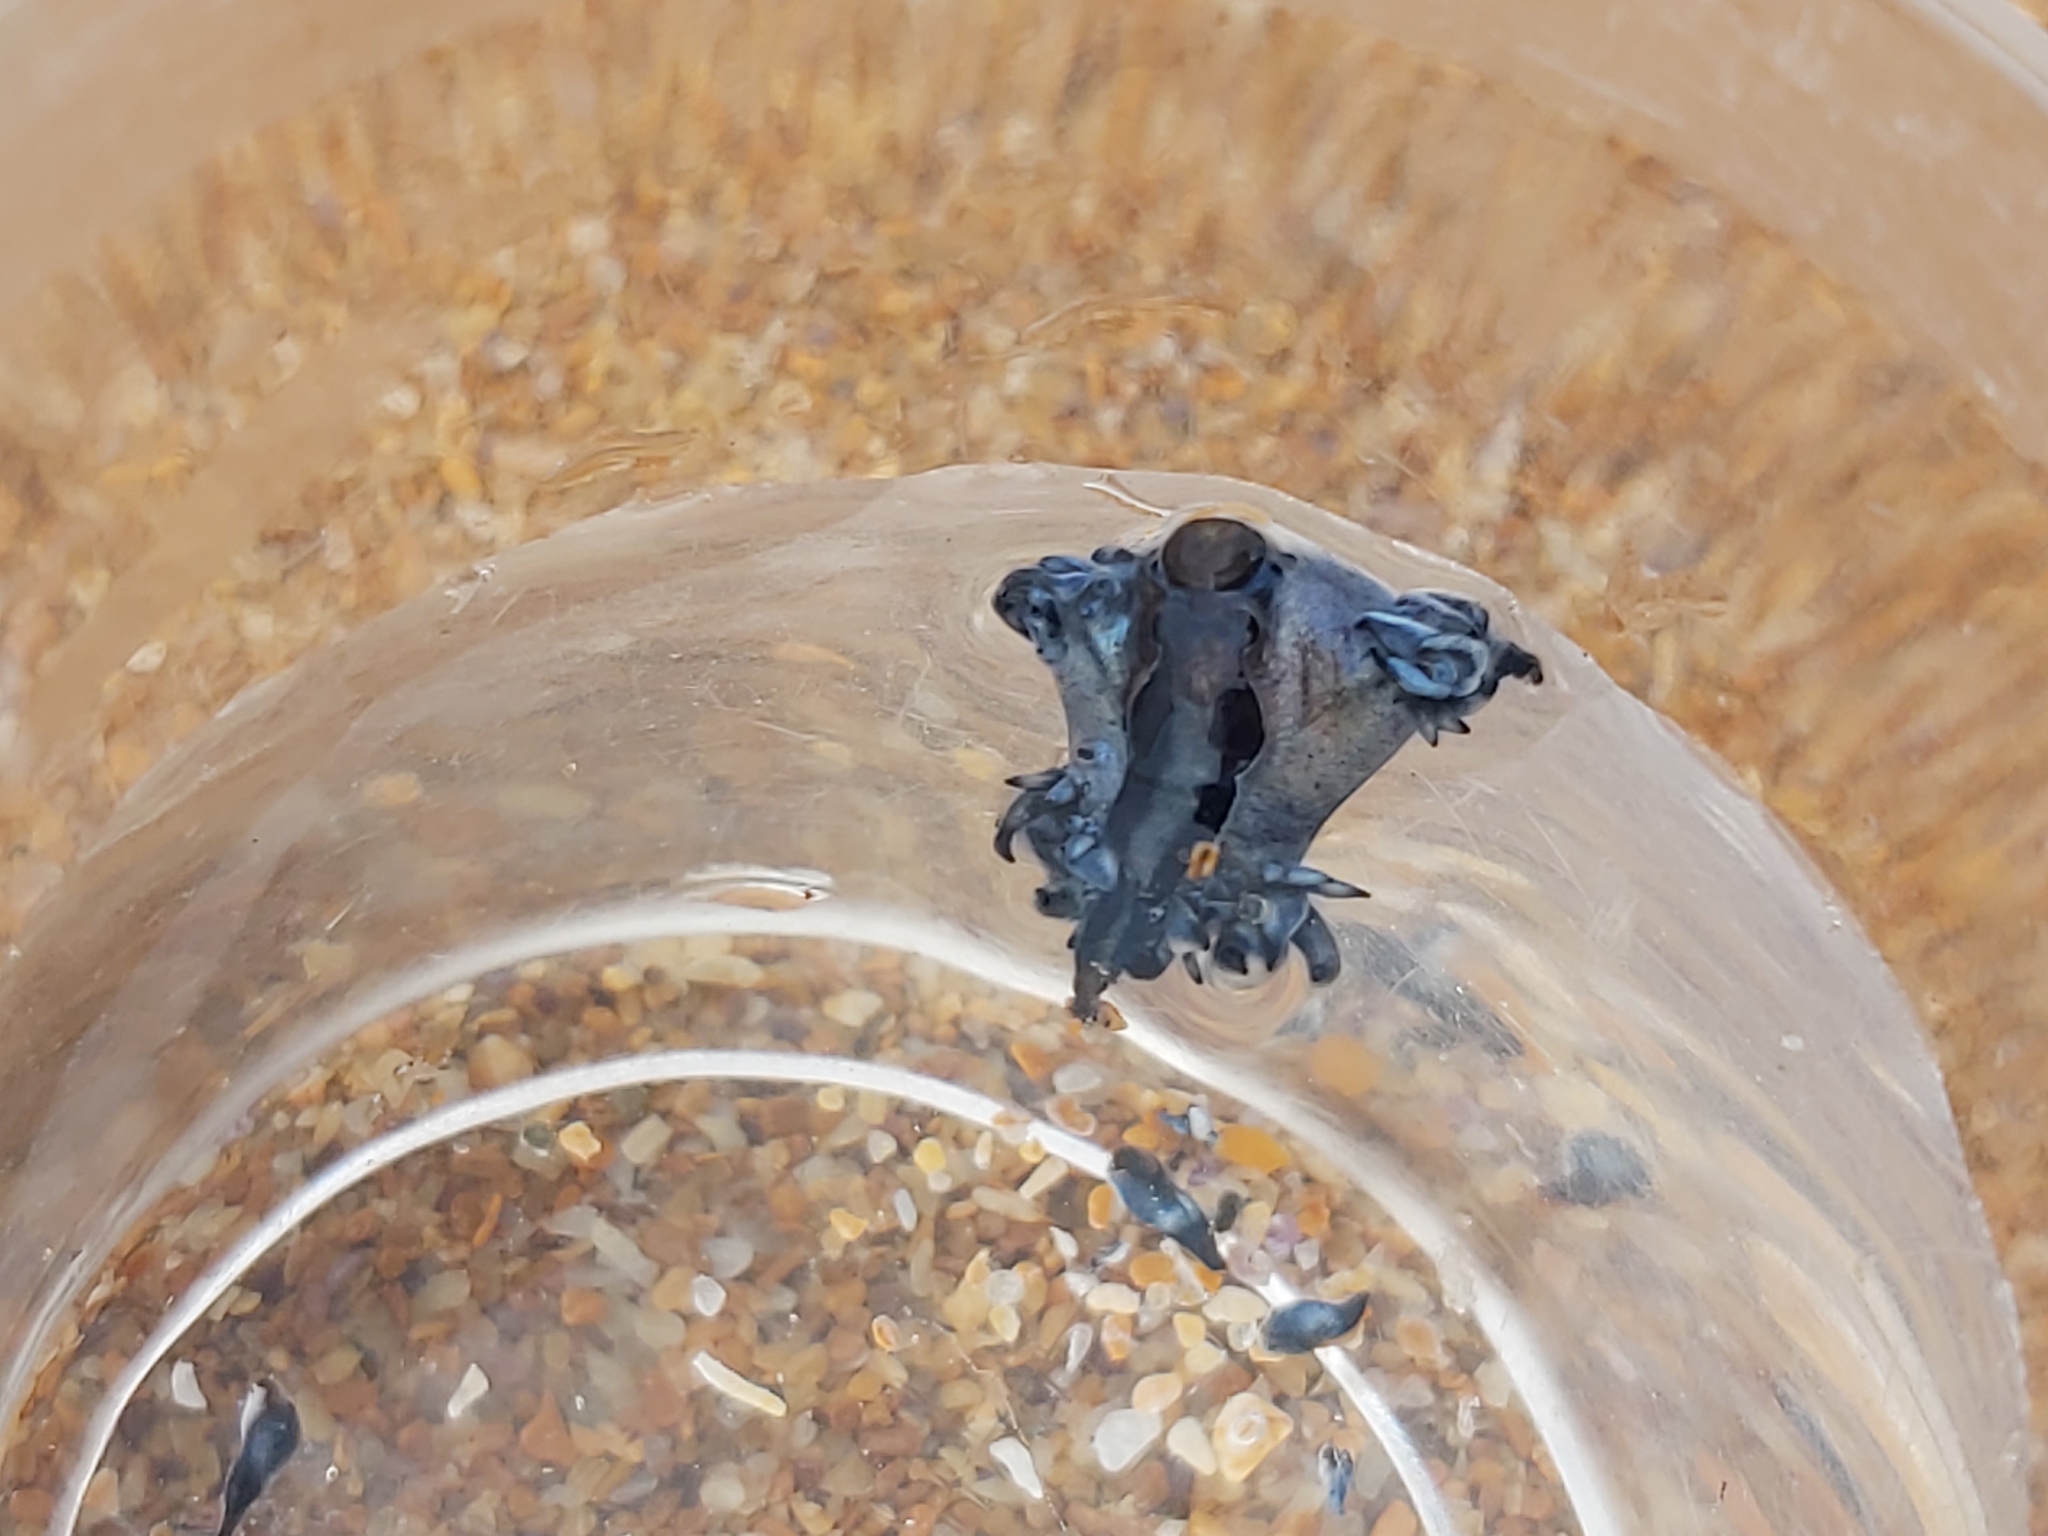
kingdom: Animalia
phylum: Mollusca
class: Gastropoda
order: Nudibranchia
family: Glaucidae
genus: Glaucilla
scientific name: Glaucilla bennettae
